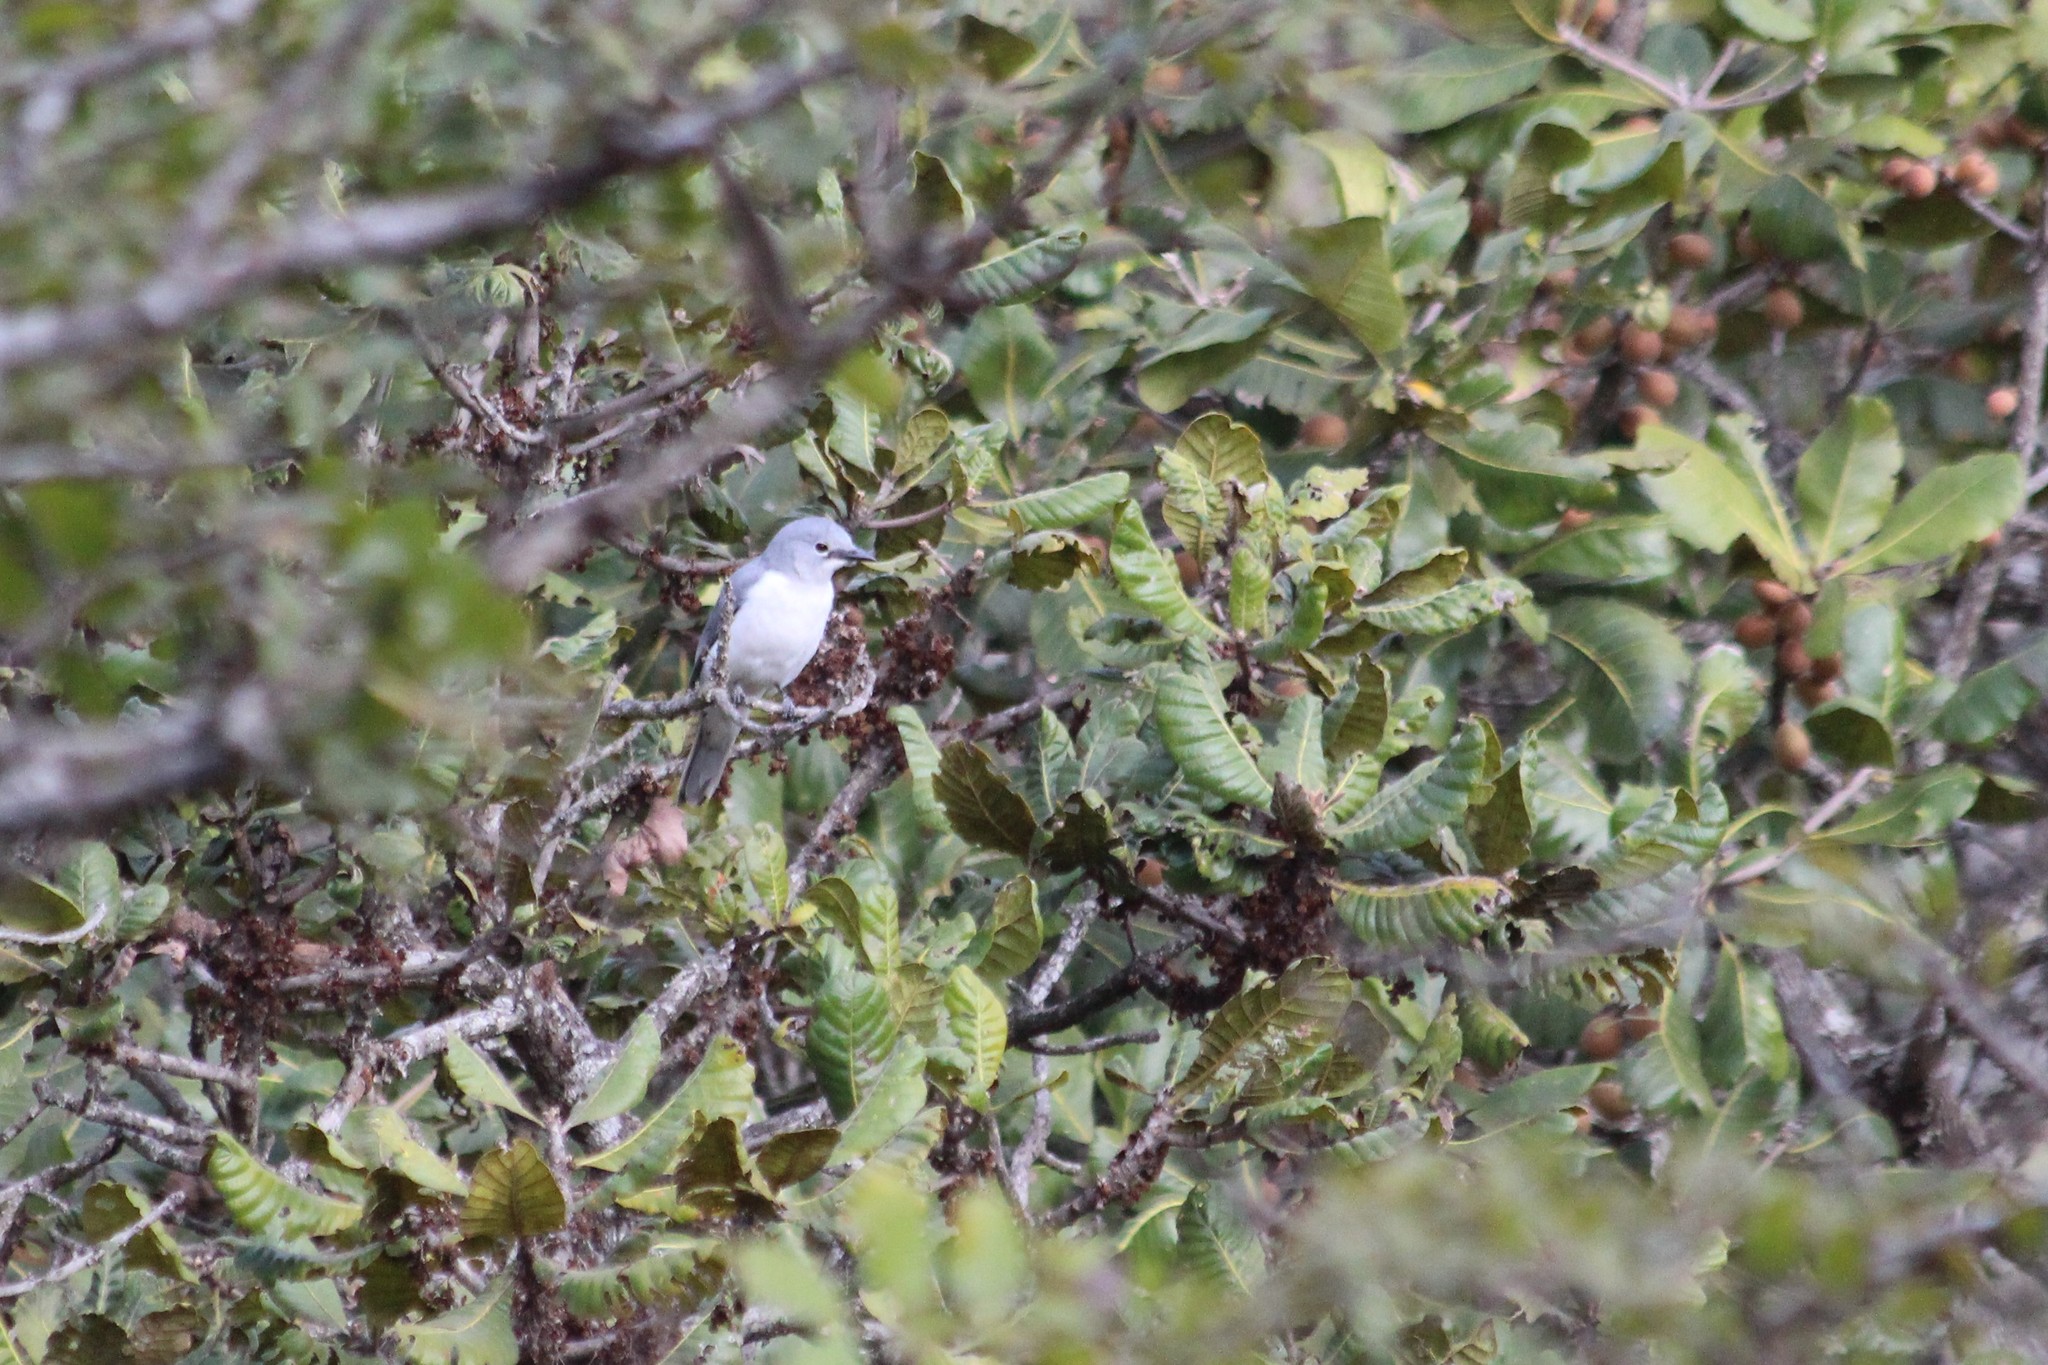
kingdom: Animalia
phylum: Chordata
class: Aves
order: Passeriformes
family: Campephagidae
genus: Coracina
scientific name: Coracina pectoralis
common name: White-breasted cuckooshrike
